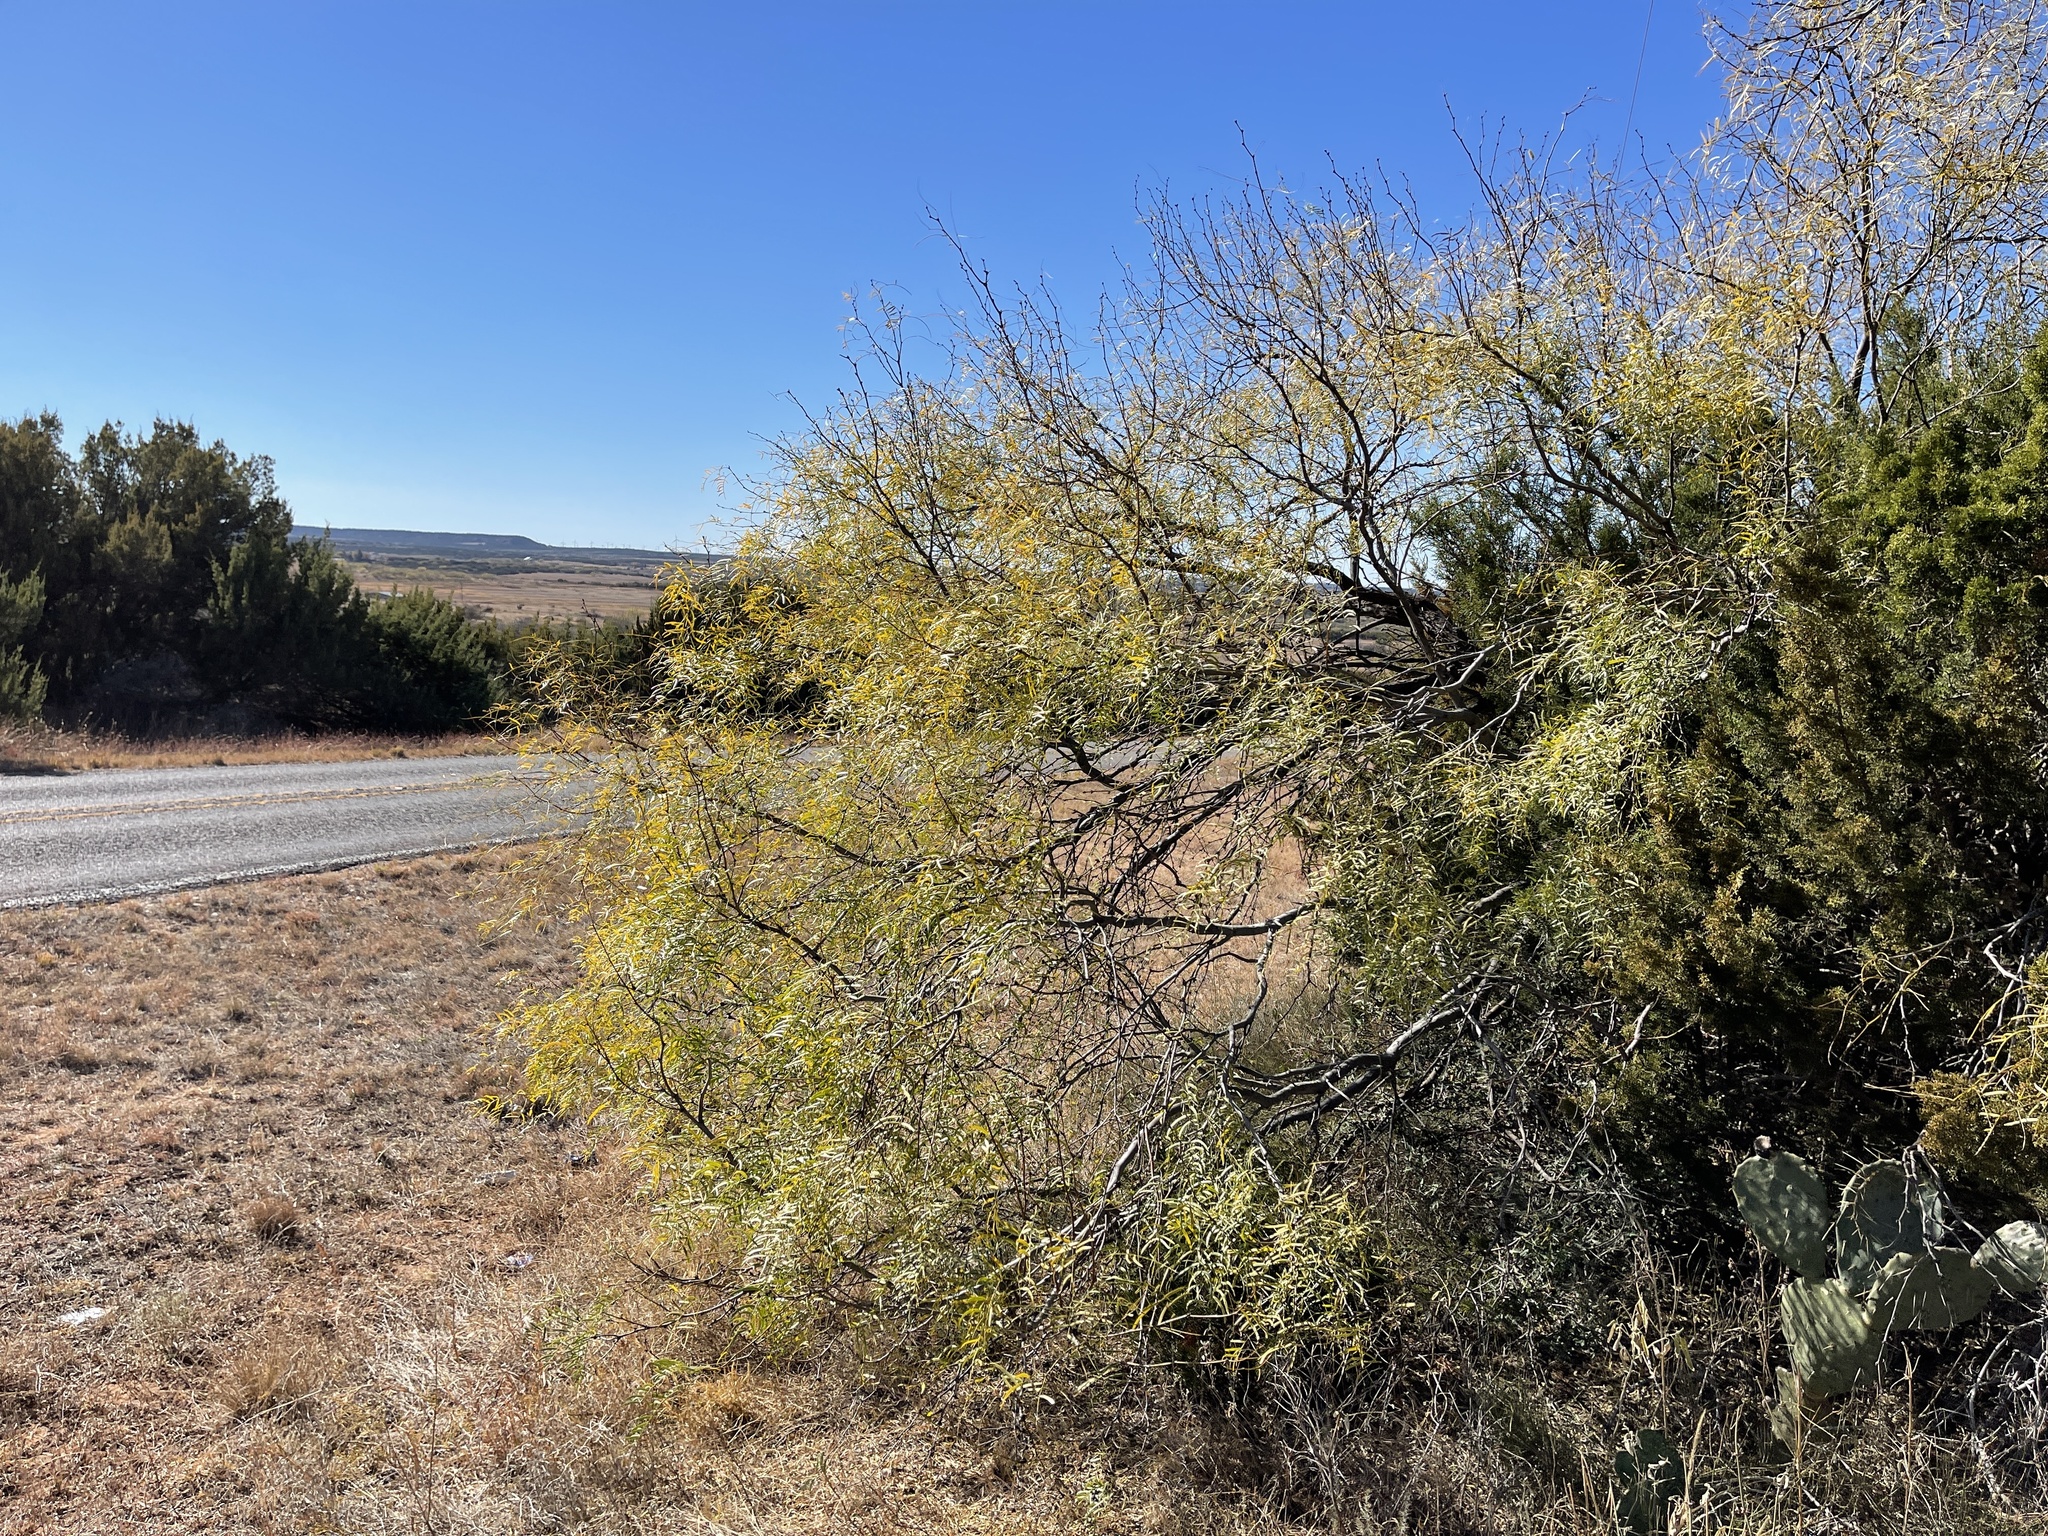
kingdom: Plantae
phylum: Tracheophyta
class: Magnoliopsida
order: Fabales
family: Fabaceae
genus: Prosopis
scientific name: Prosopis glandulosa
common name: Honey mesquite
